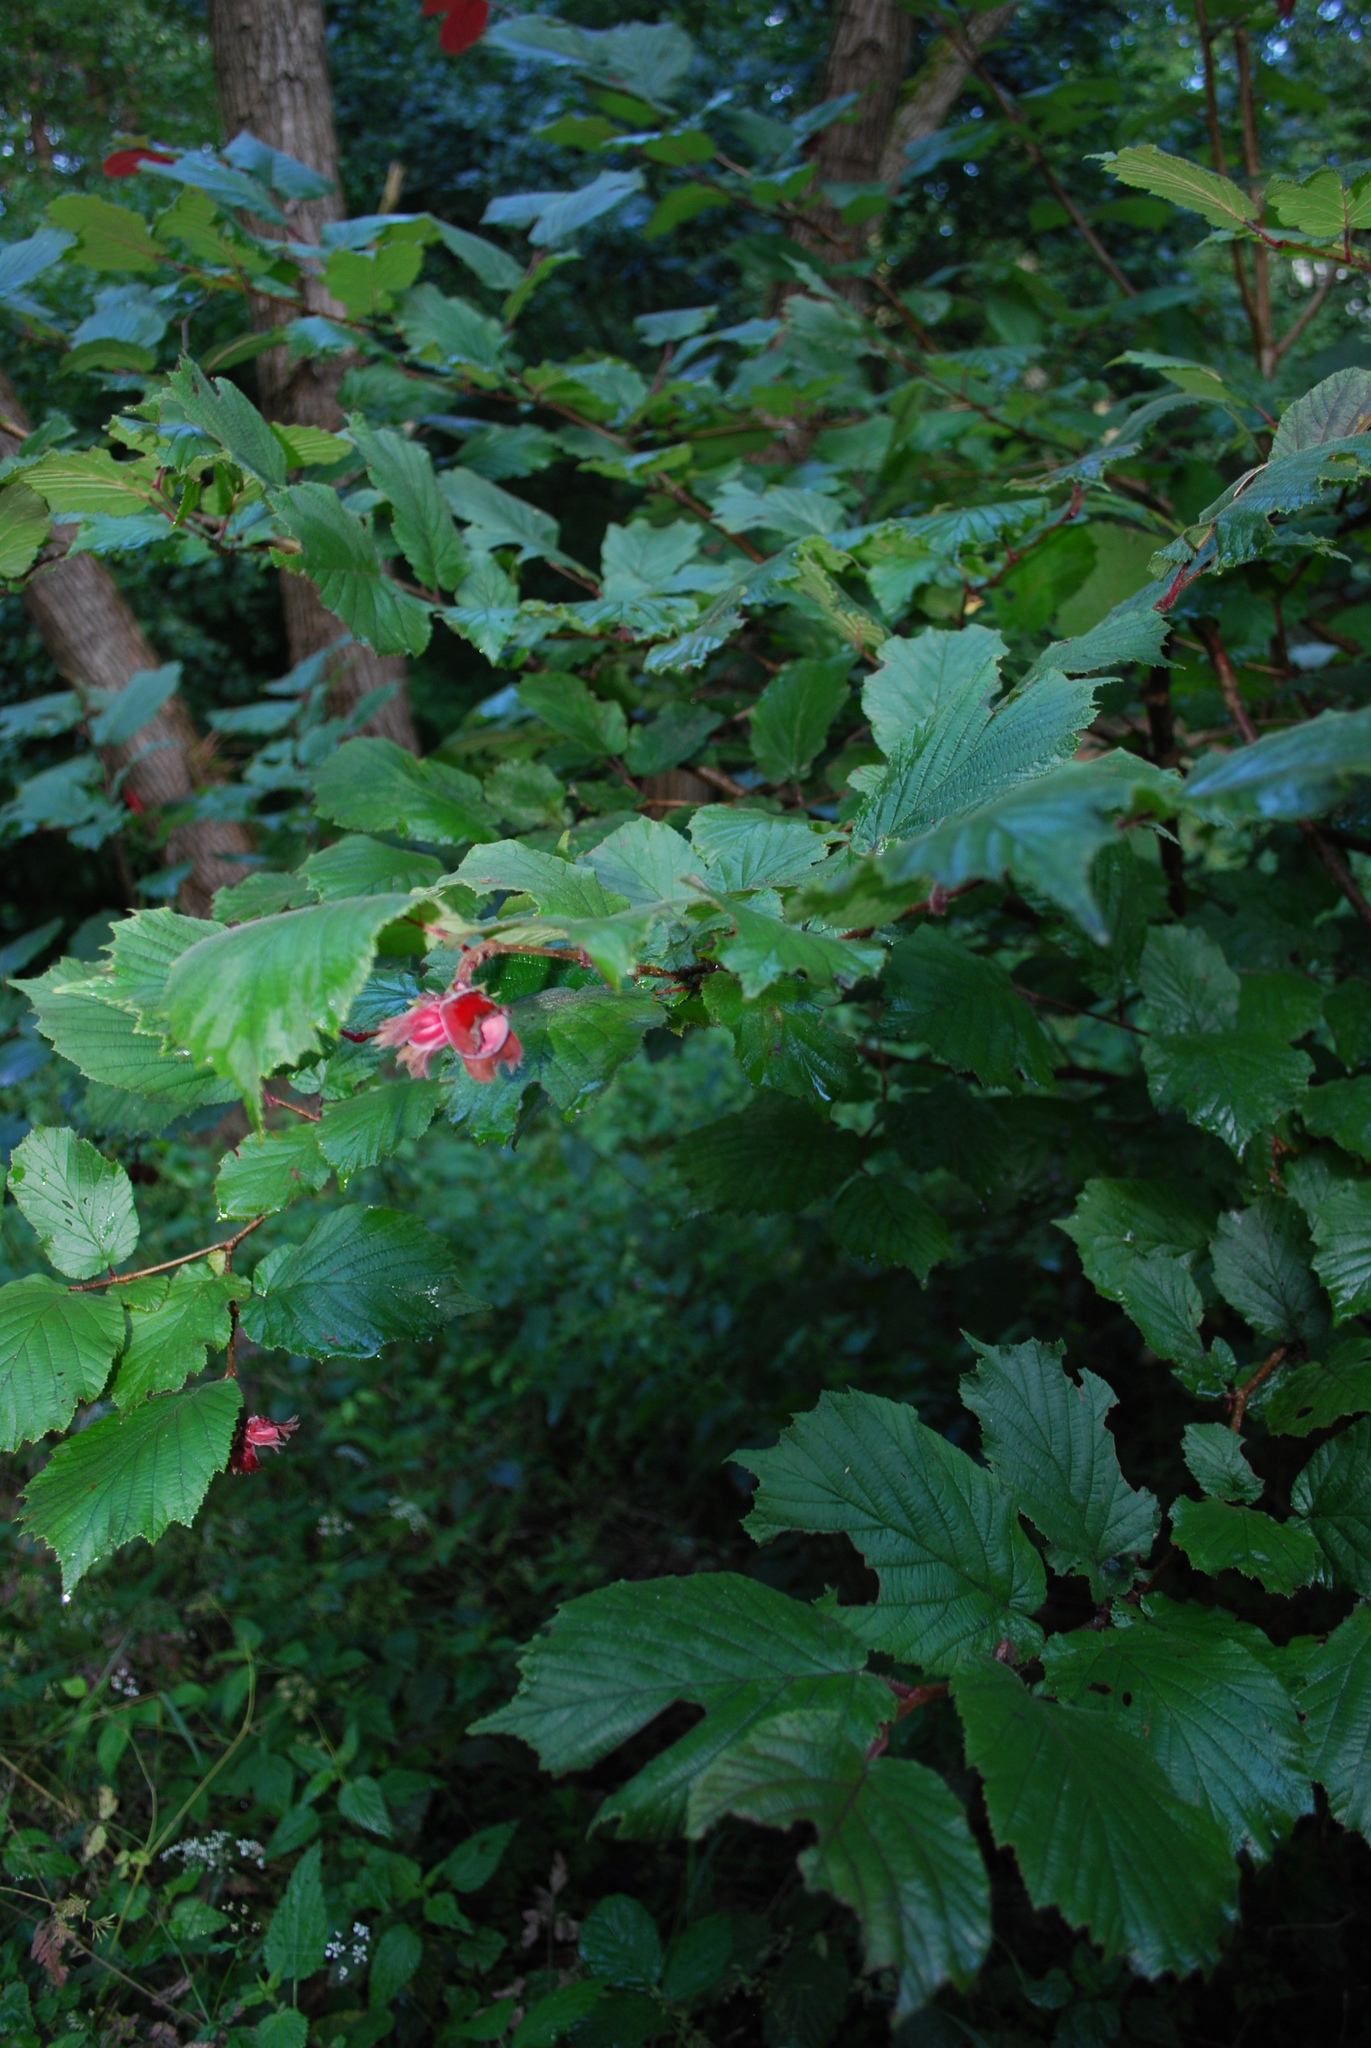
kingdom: Plantae
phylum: Tracheophyta
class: Magnoliopsida
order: Fagales
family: Betulaceae
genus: Corylus
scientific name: Corylus avellana
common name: European hazel
